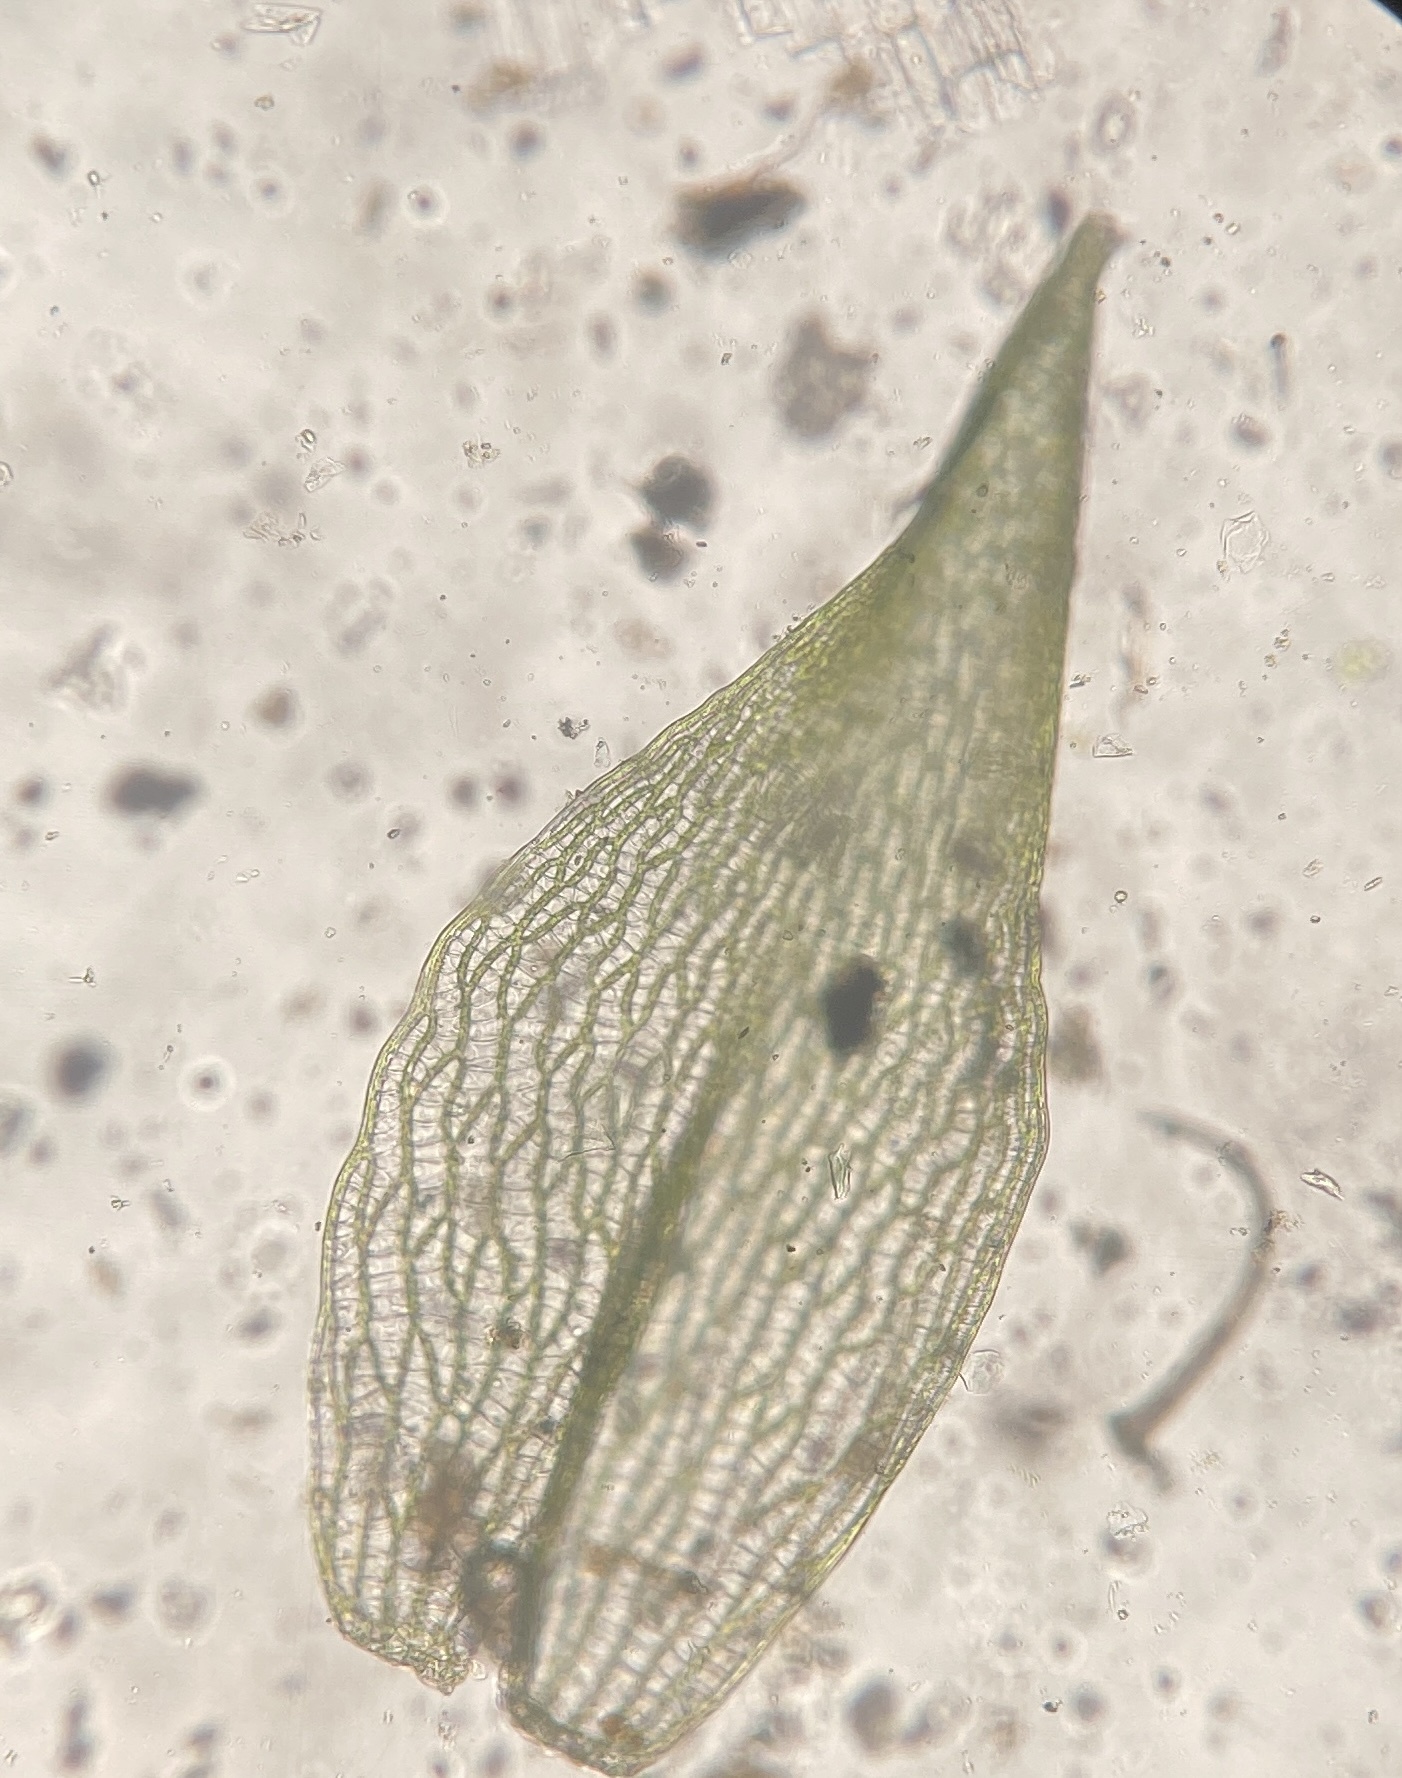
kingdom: Plantae
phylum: Bryophyta
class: Sphagnopsida
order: Sphagnales
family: Sphagnaceae
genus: Sphagnum
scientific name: Sphagnum squarrosum
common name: Shaggy peat moss
